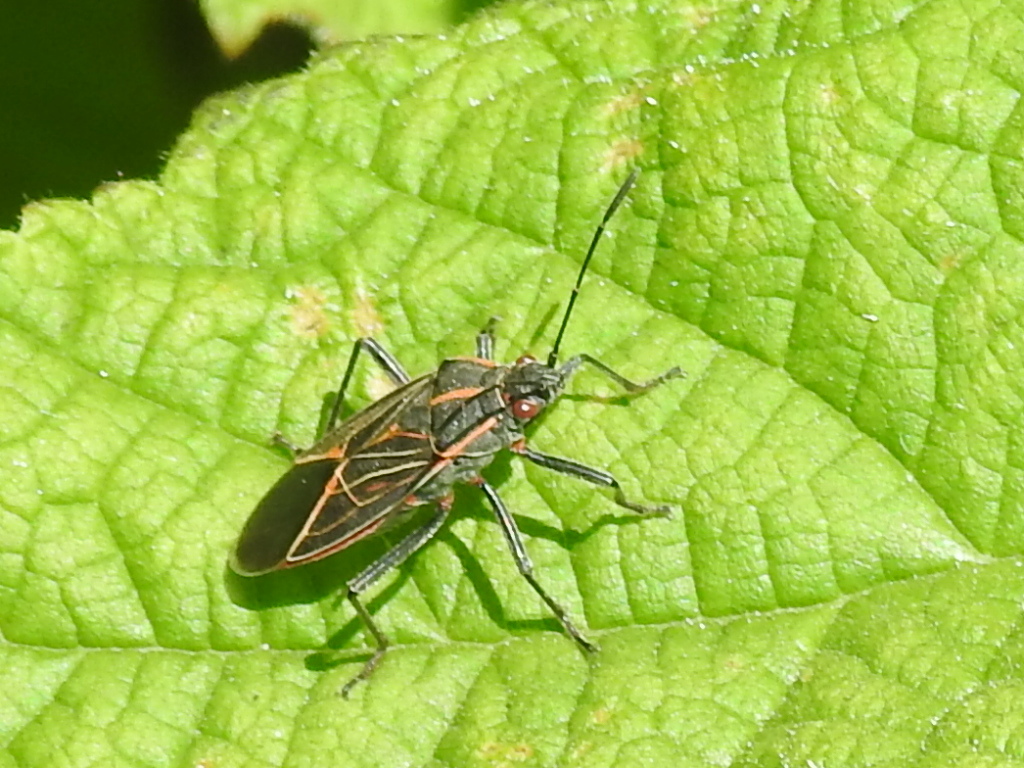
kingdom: Animalia
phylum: Arthropoda
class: Insecta
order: Hemiptera
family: Rhopalidae
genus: Boisea
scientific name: Boisea rubrolineata
